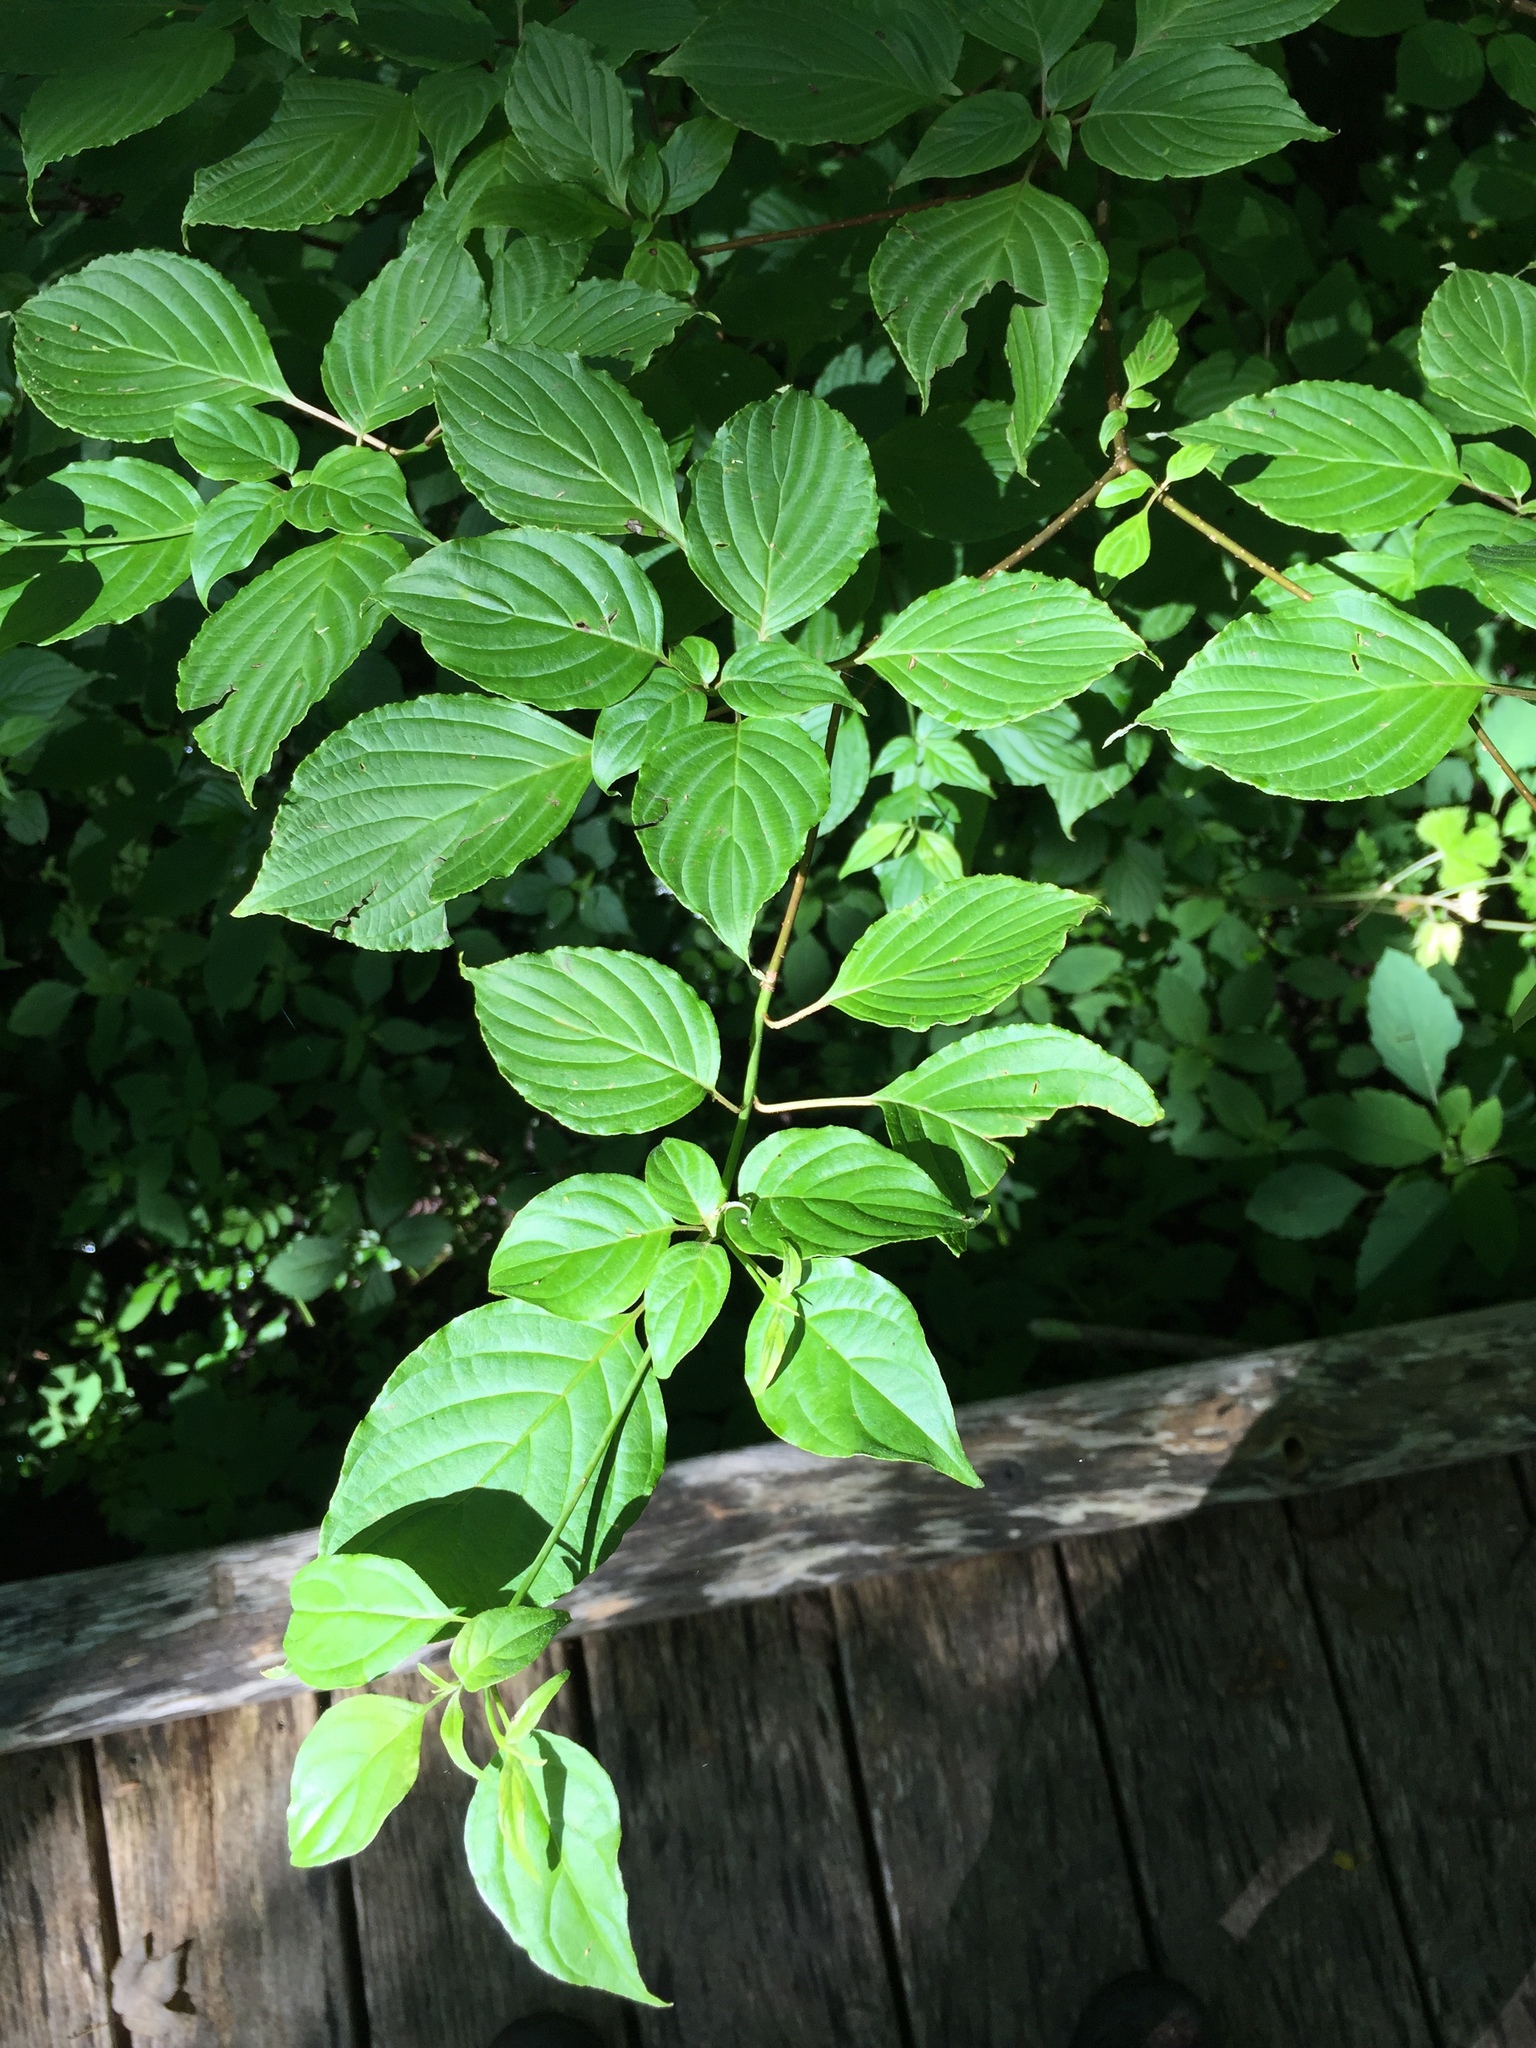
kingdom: Plantae
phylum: Tracheophyta
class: Magnoliopsida
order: Cornales
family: Cornaceae
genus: Cornus
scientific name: Cornus alternifolia
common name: Pagoda dogwood
